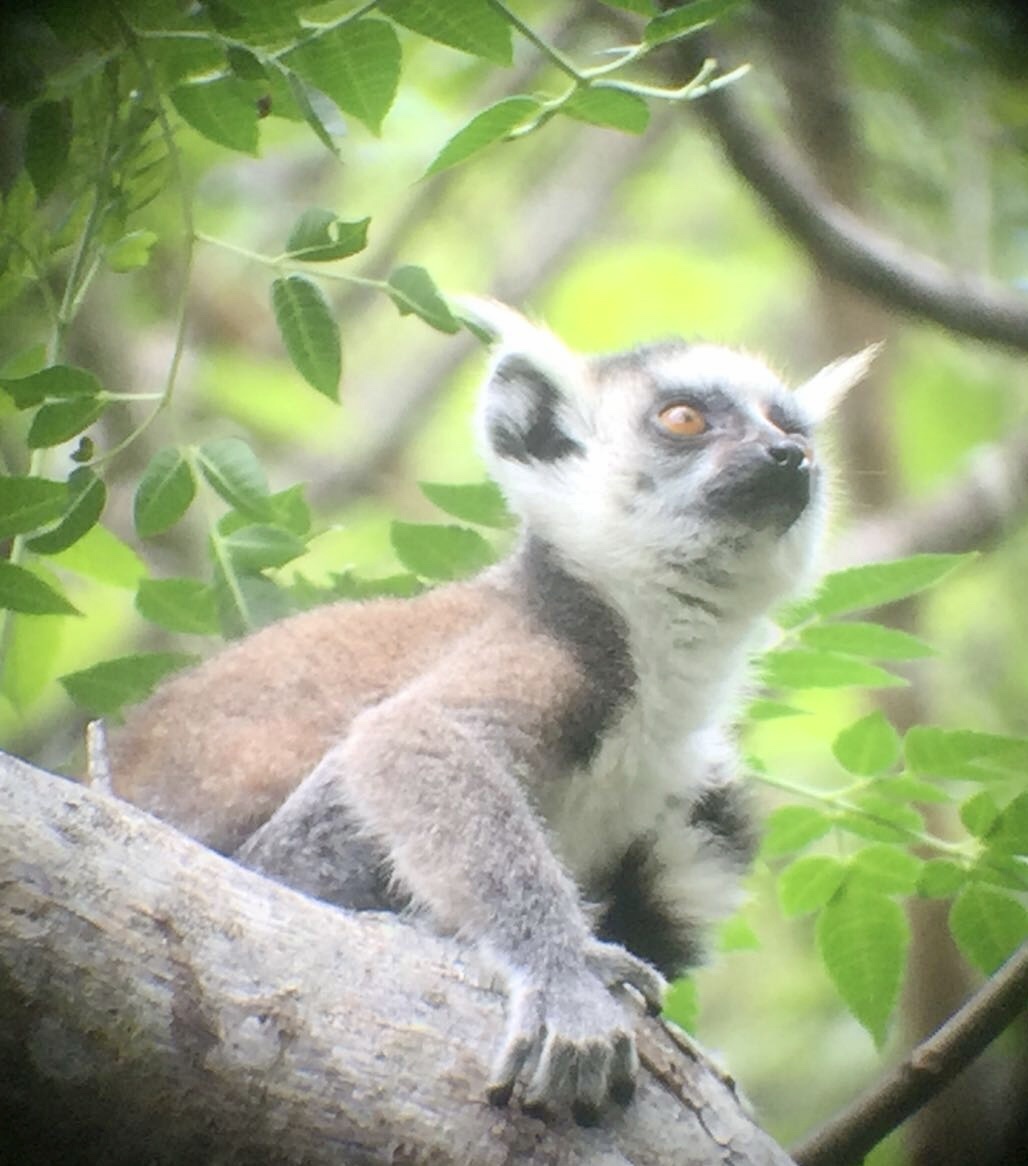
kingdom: Animalia
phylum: Chordata
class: Mammalia
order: Primates
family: Lemuridae
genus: Lemur
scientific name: Lemur catta
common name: Ring-tailed lemur
